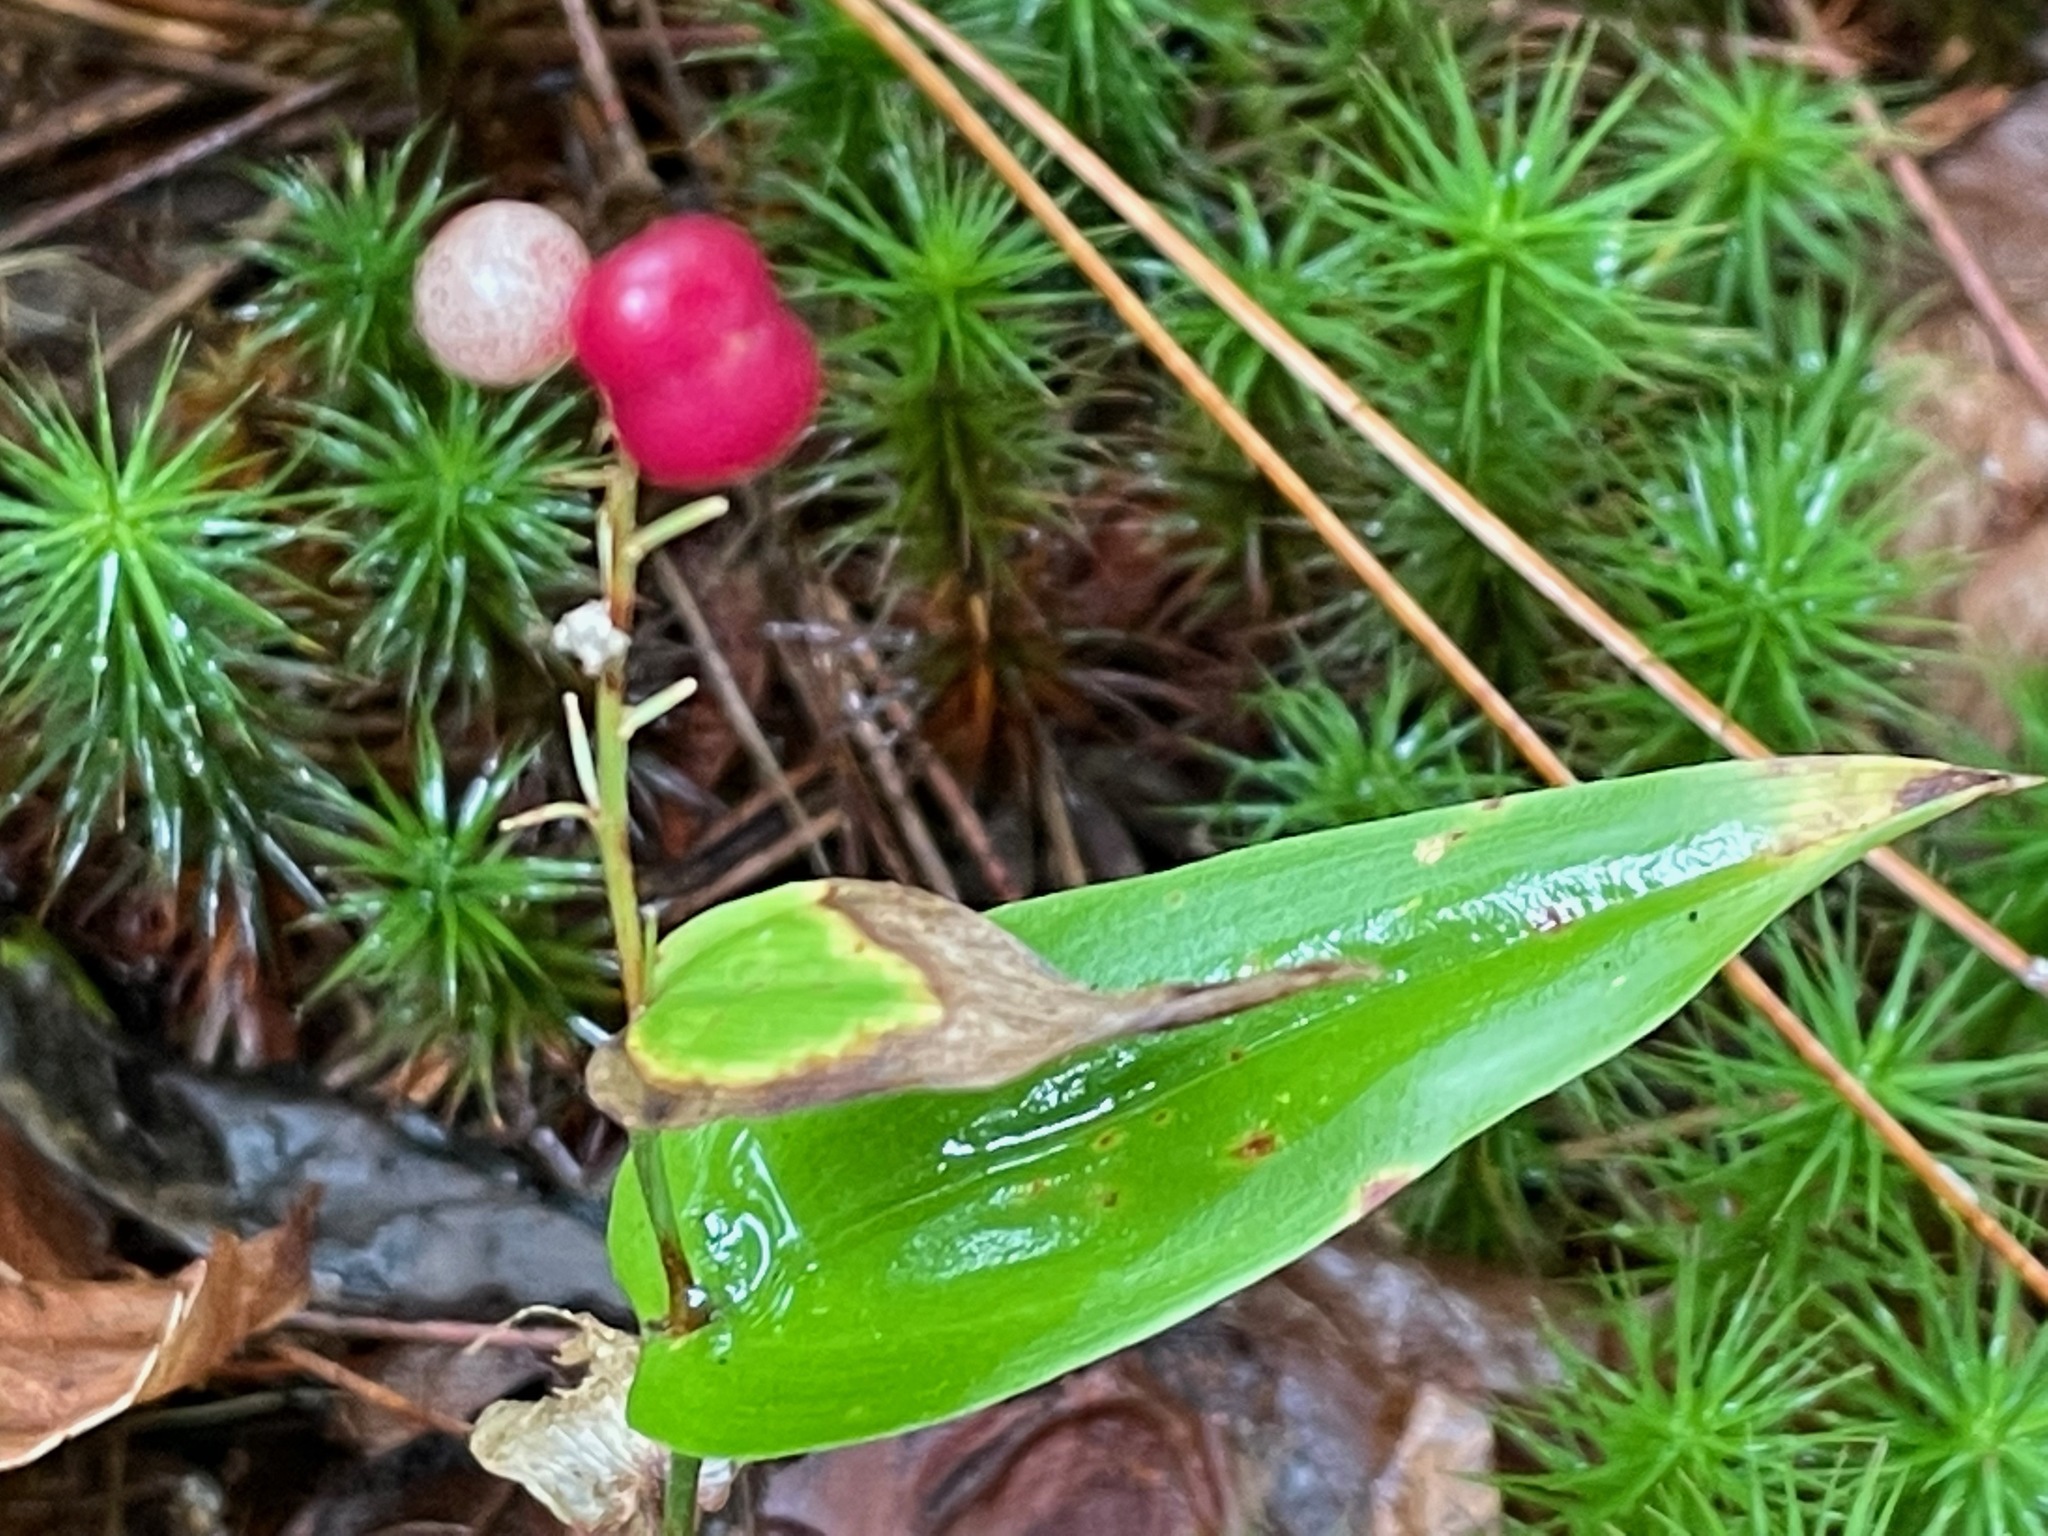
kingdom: Plantae
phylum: Tracheophyta
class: Liliopsida
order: Asparagales
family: Asparagaceae
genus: Maianthemum
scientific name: Maianthemum canadense
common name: False lily-of-the-valley
